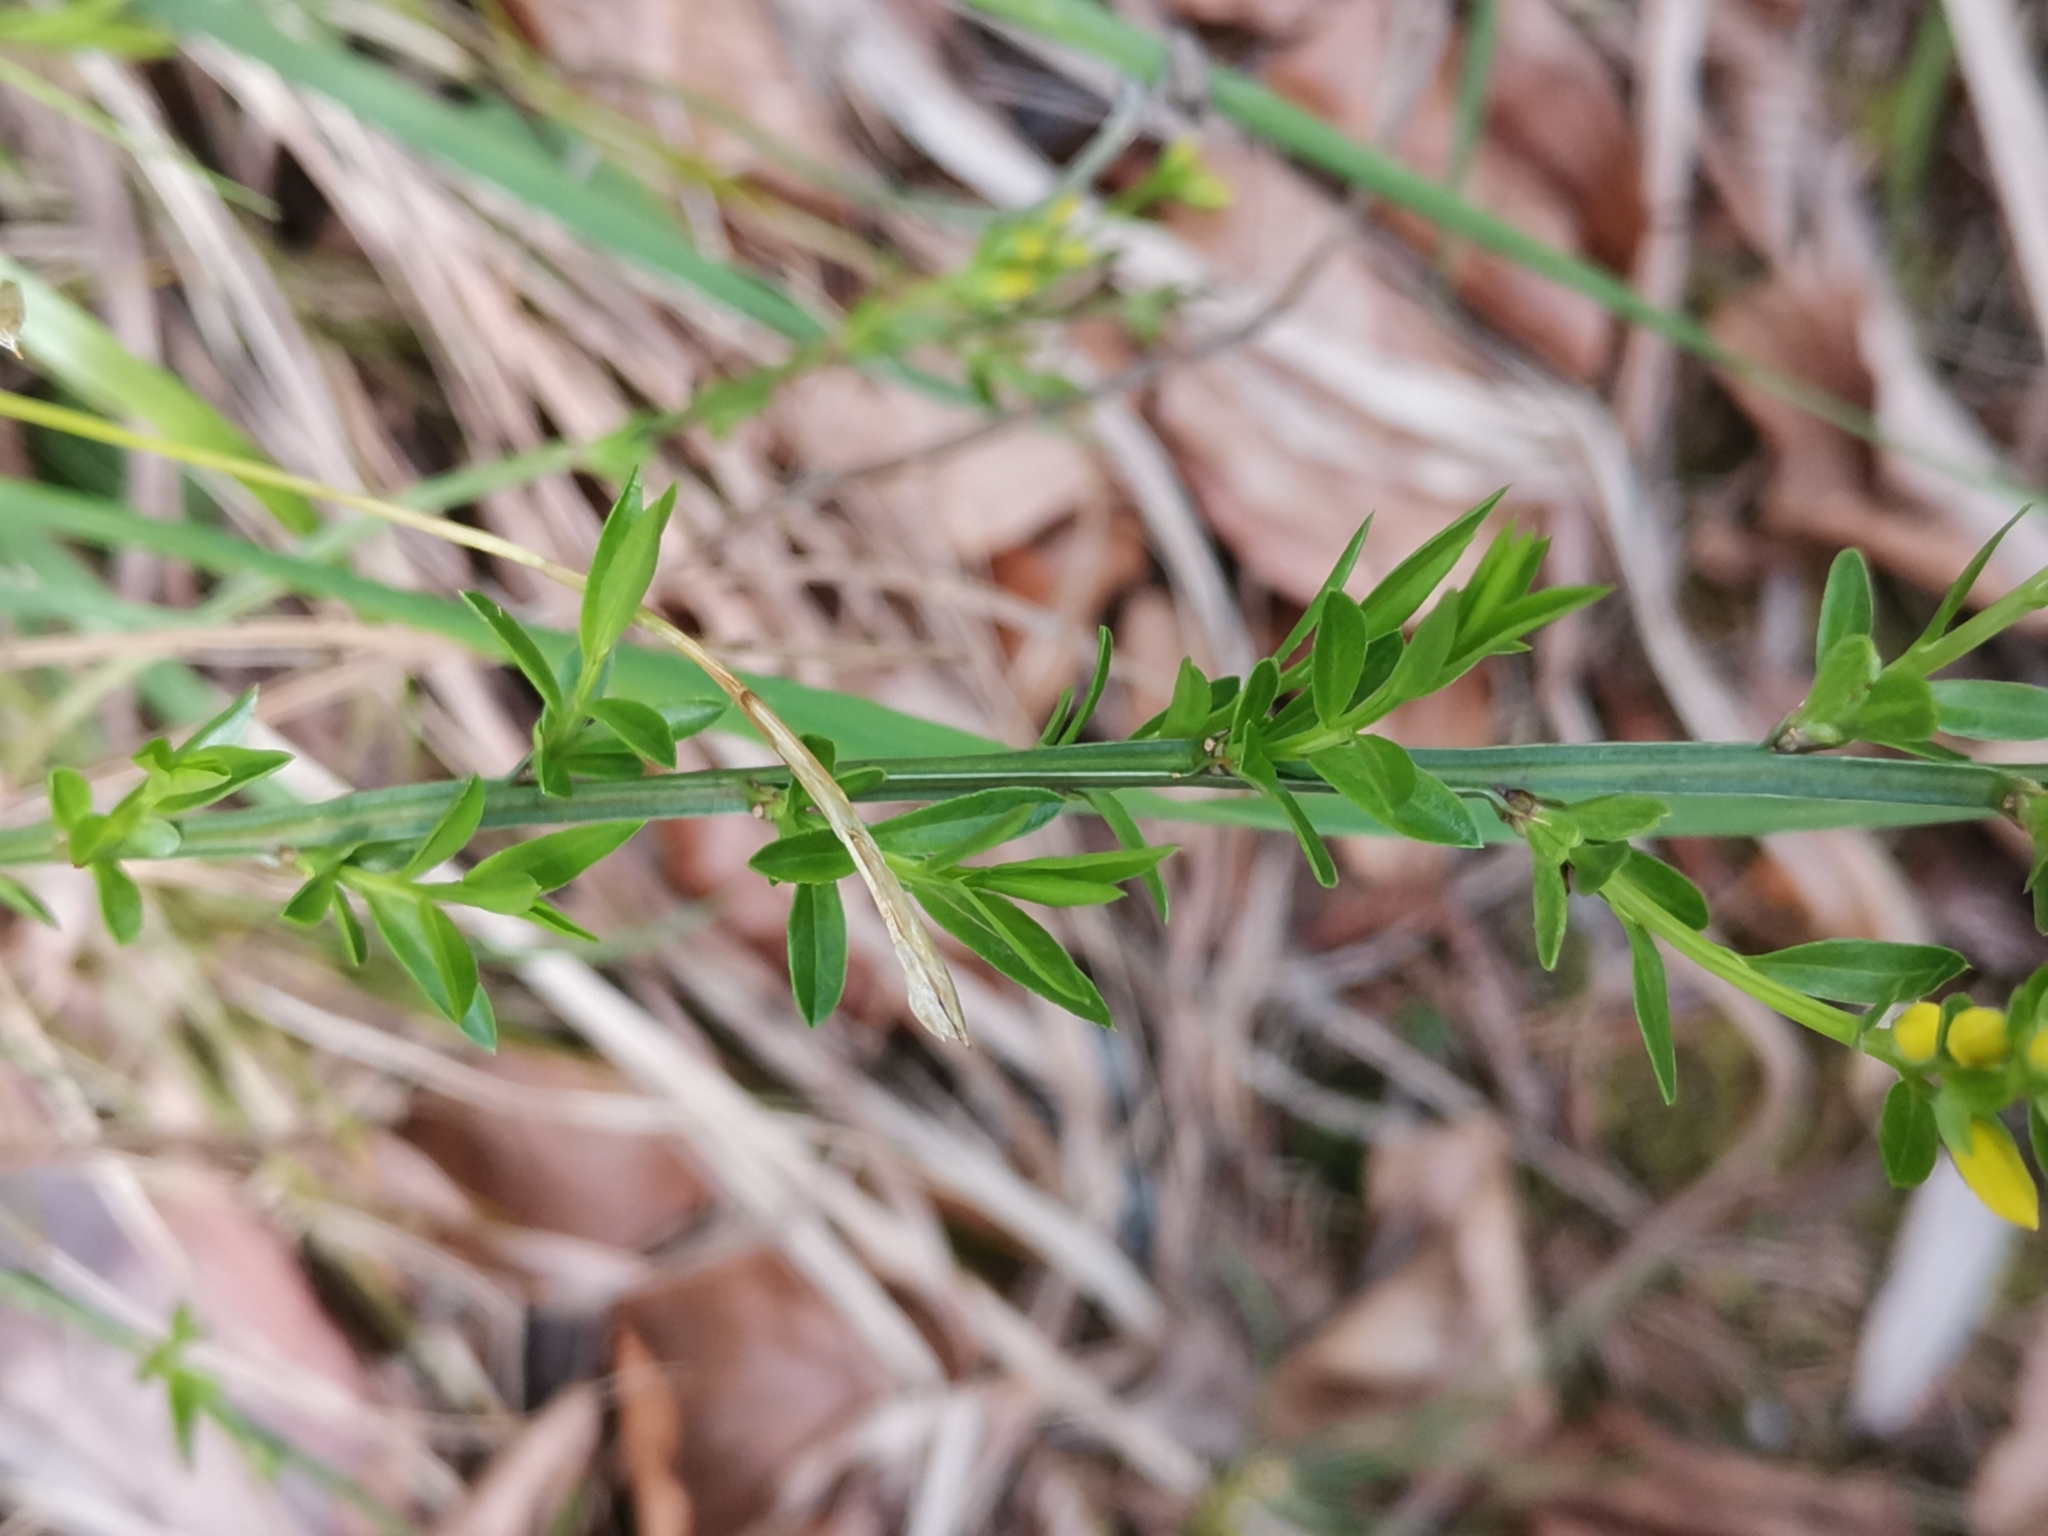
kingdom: Plantae
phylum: Tracheophyta
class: Magnoliopsida
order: Fabales
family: Fabaceae
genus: Genista
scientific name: Genista januensis
